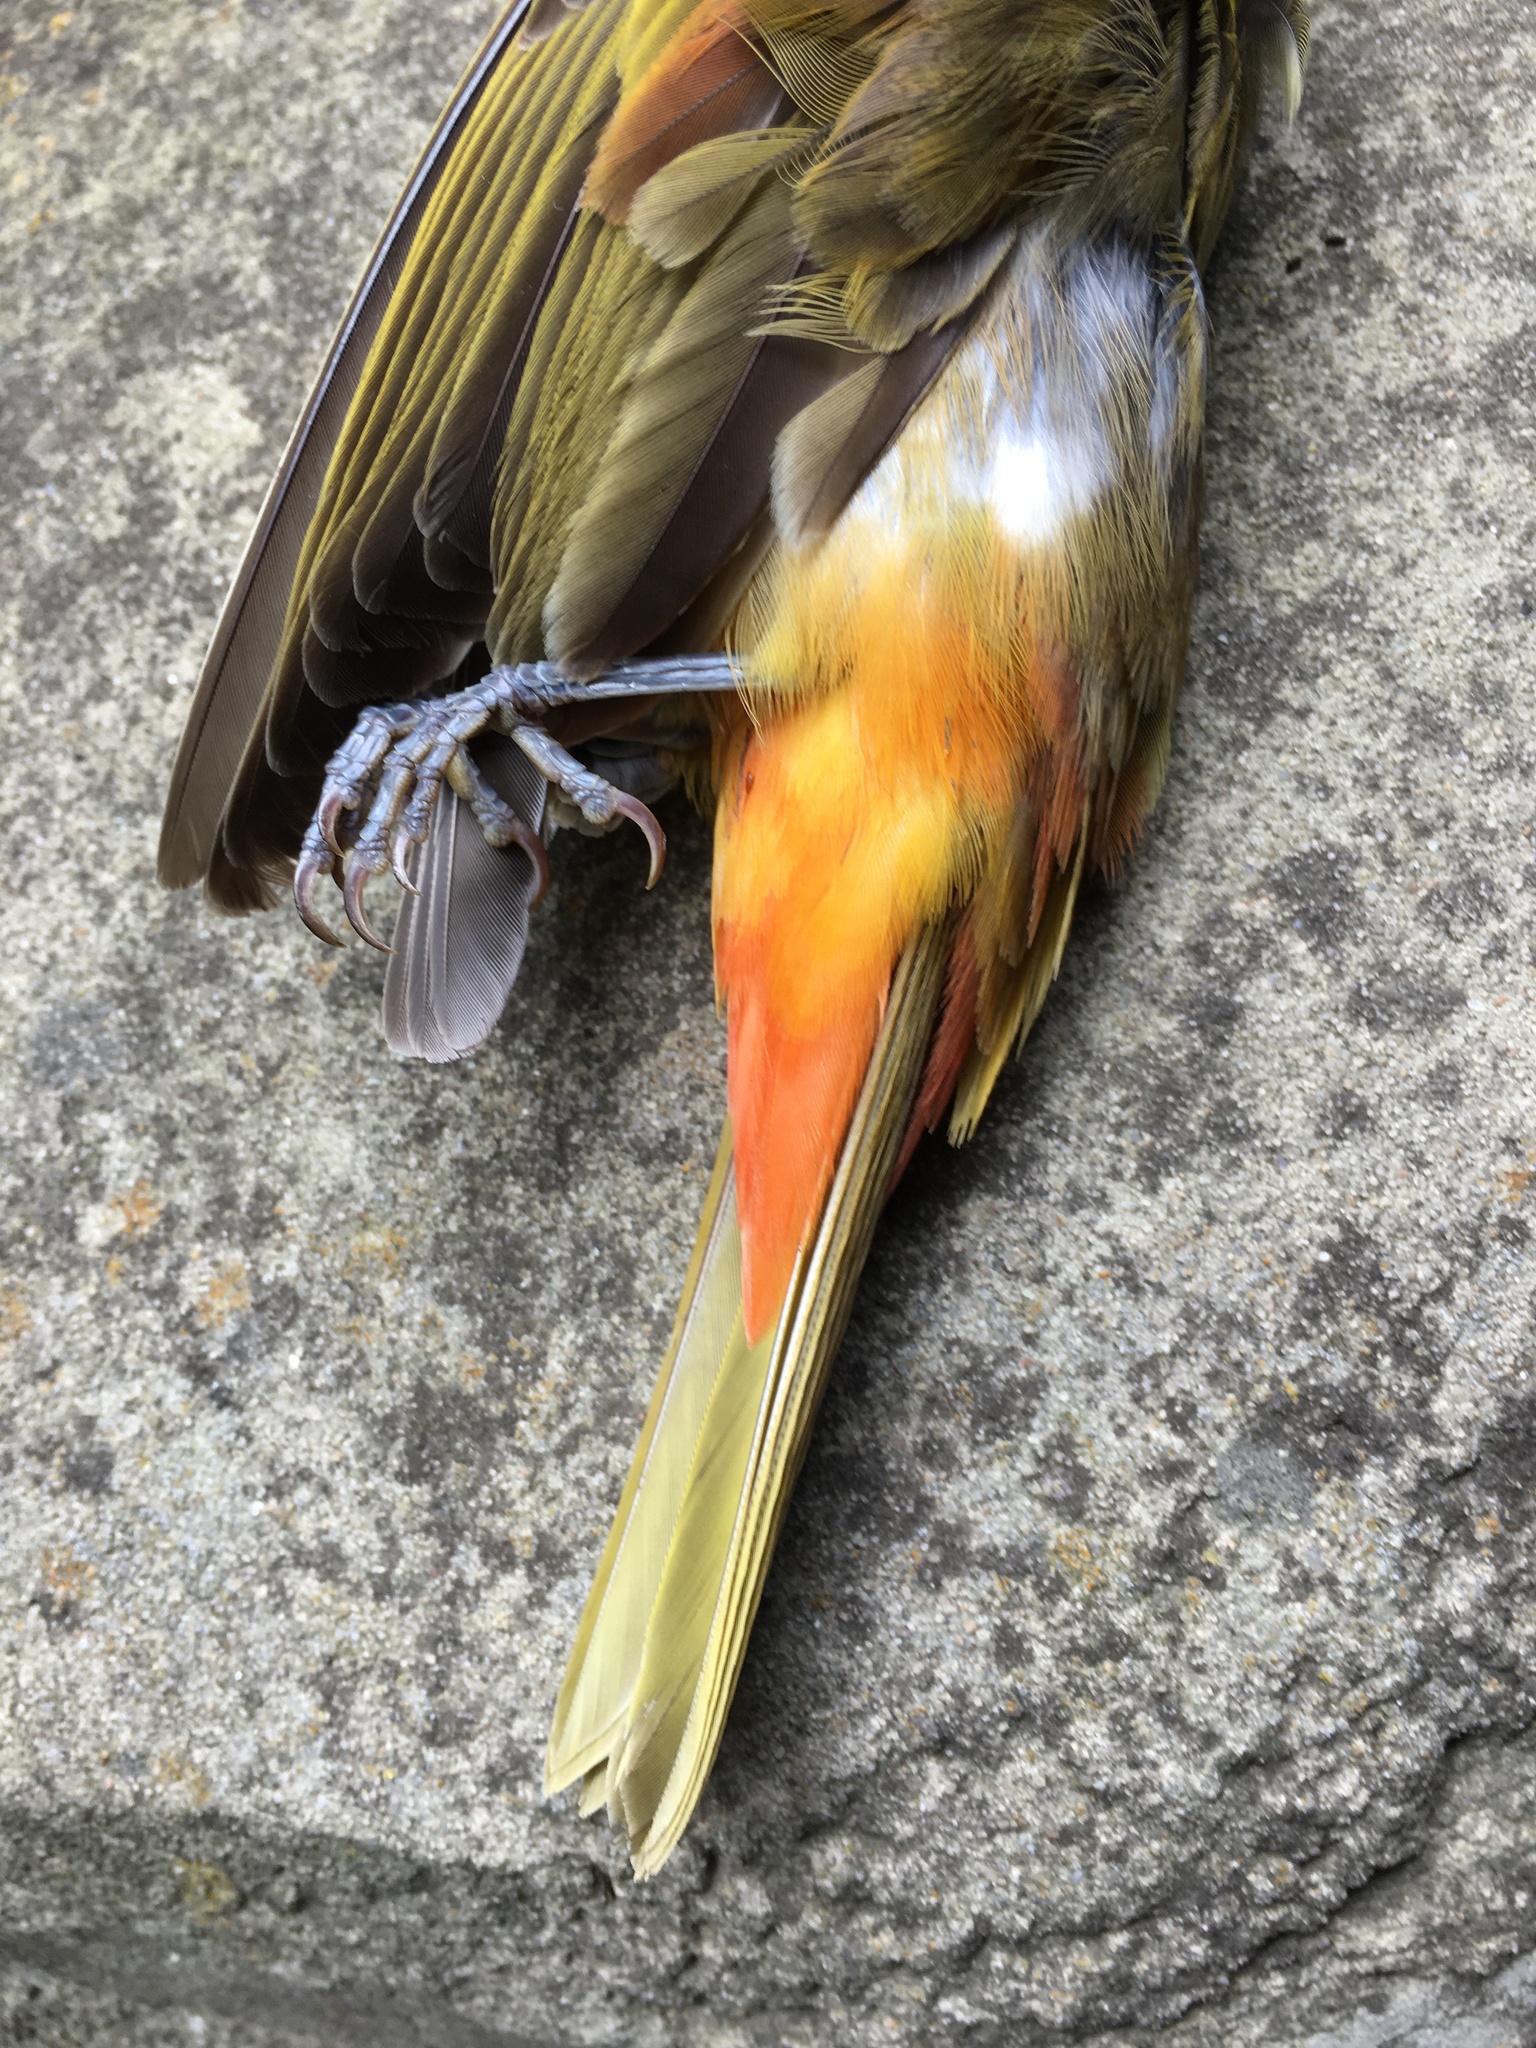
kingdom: Animalia
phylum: Chordata
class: Aves
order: Passeriformes
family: Cardinalidae
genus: Piranga
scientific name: Piranga rubra
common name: Summer tanager
